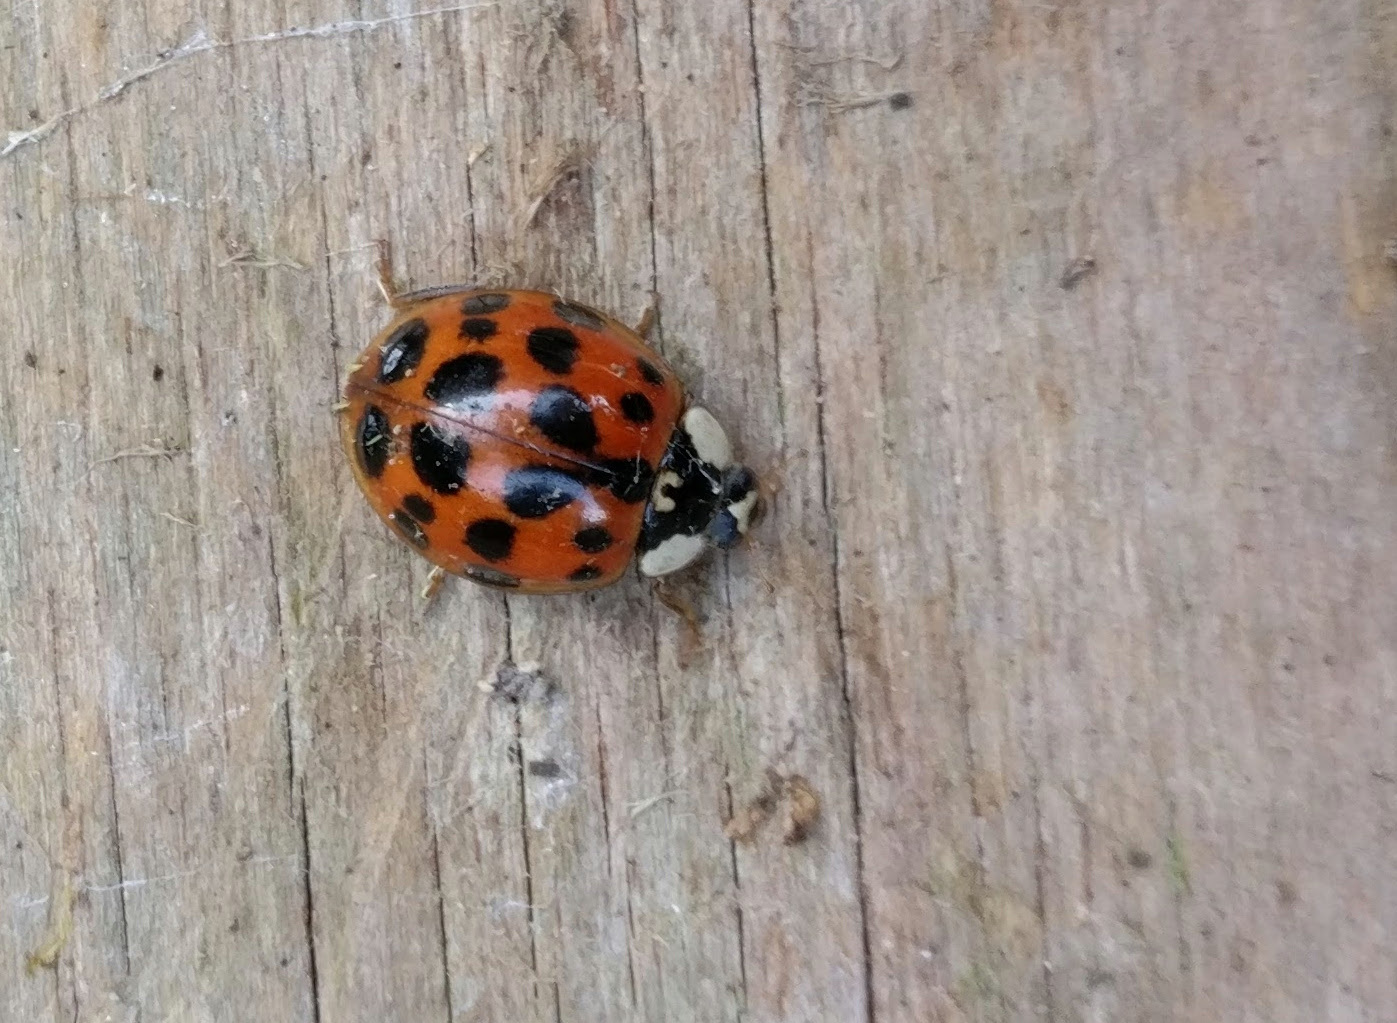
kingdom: Animalia
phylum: Arthropoda
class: Insecta
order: Coleoptera
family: Coccinellidae
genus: Harmonia
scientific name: Harmonia axyridis
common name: Harlequin ladybird
